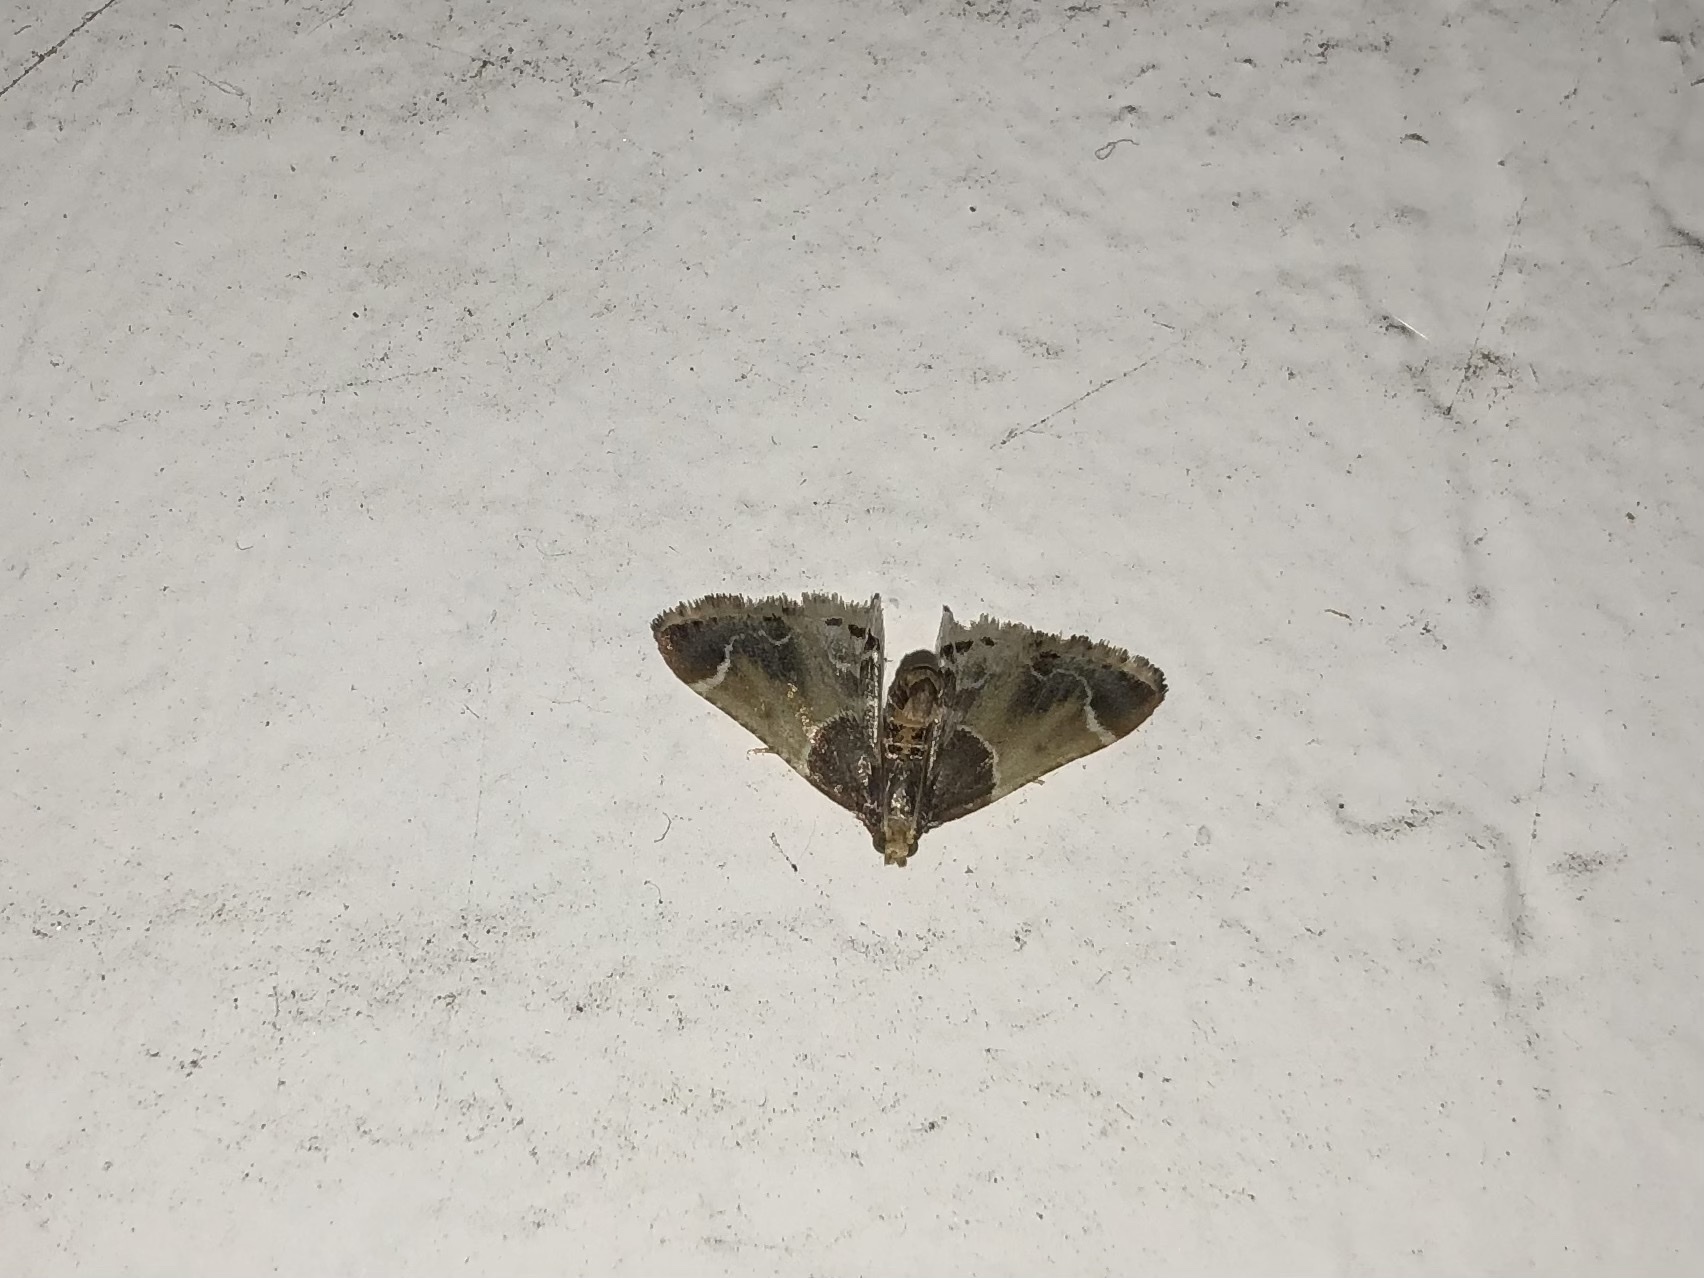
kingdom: Animalia
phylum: Arthropoda
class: Insecta
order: Lepidoptera
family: Pyralidae
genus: Pyralis
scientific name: Pyralis farinalis
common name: Meal moth
